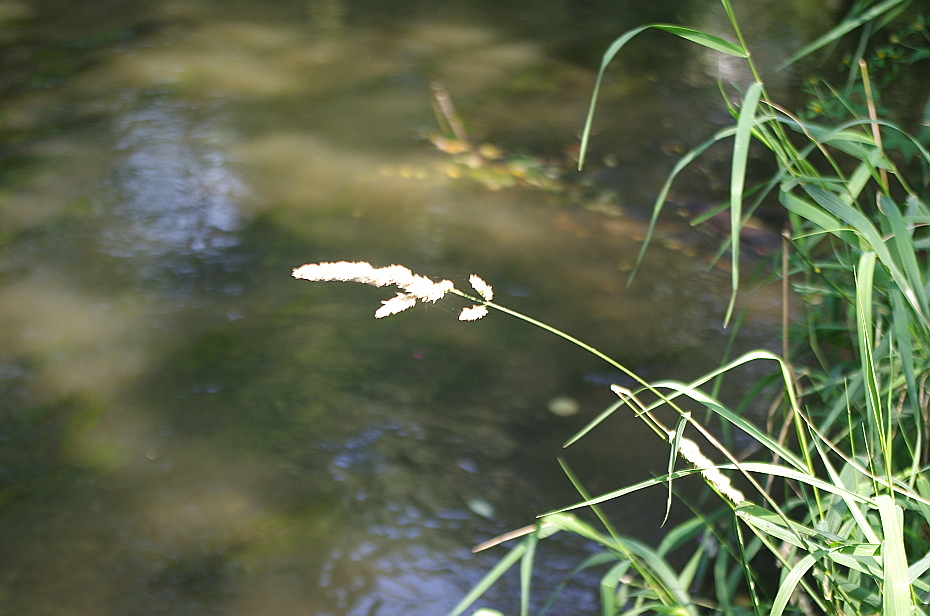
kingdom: Plantae
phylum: Tracheophyta
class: Liliopsida
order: Poales
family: Poaceae
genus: Dactylis
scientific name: Dactylis glomerata
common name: Orchardgrass
